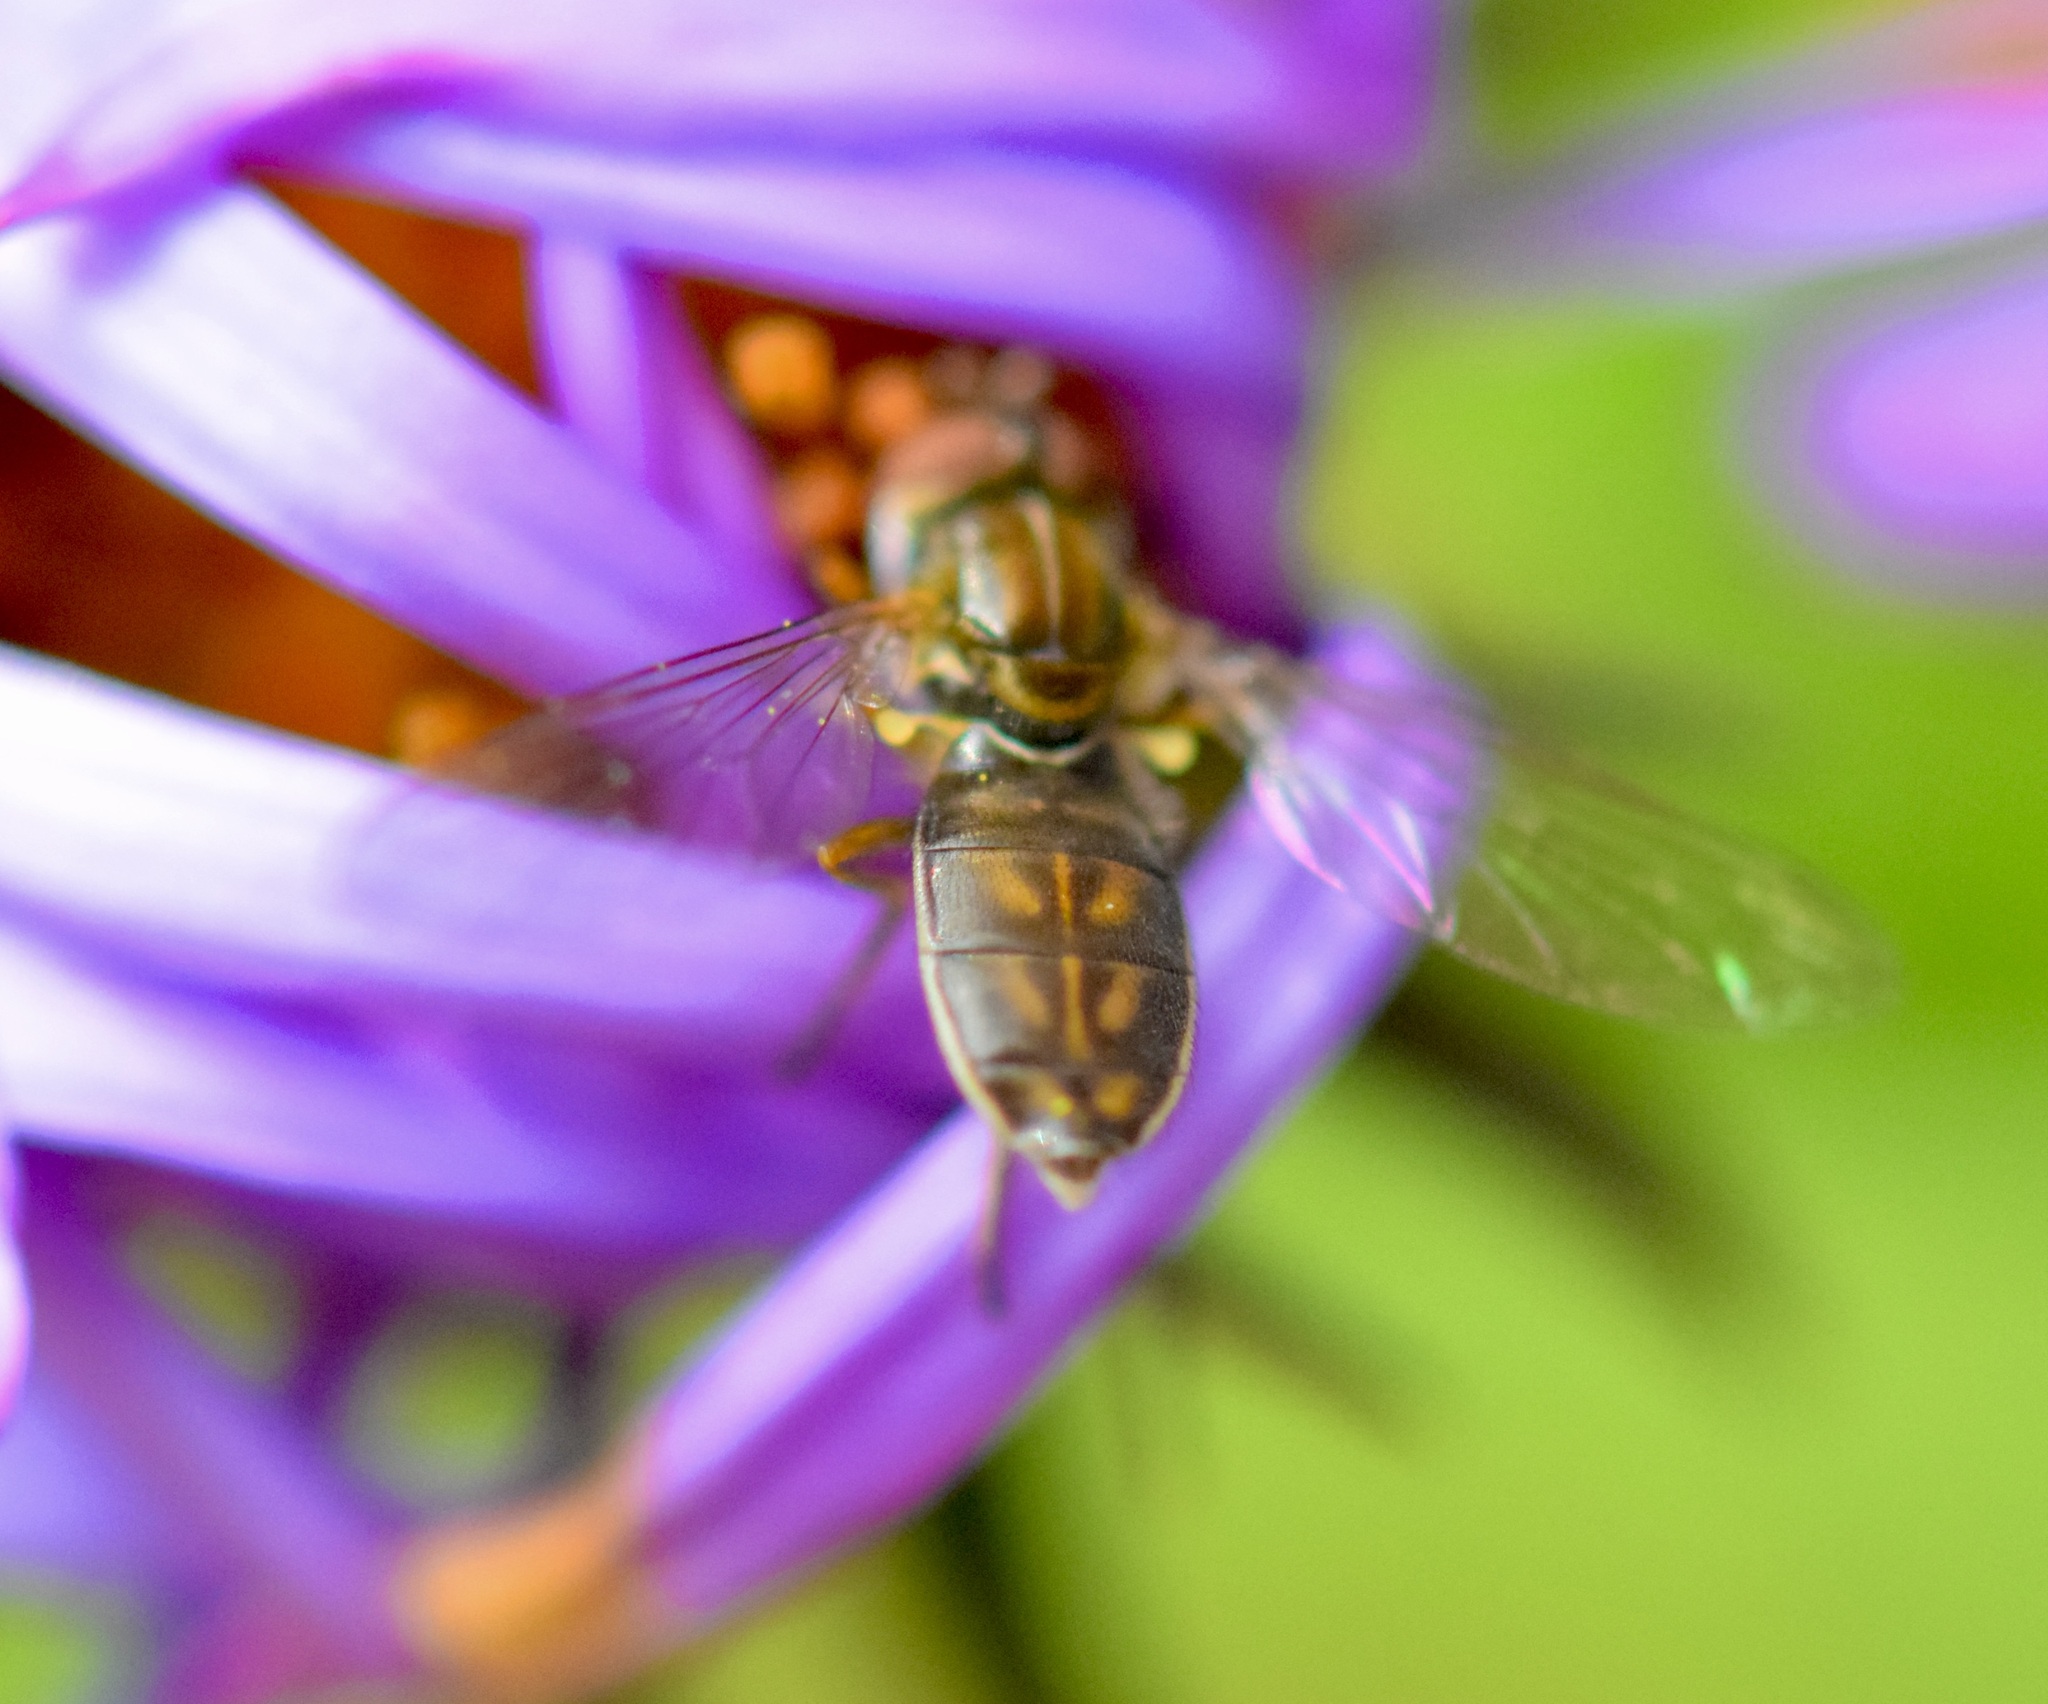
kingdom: Animalia
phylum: Arthropoda
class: Insecta
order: Diptera
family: Syrphidae
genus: Toxomerus
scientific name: Toxomerus marginatus
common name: Syrphid fly
